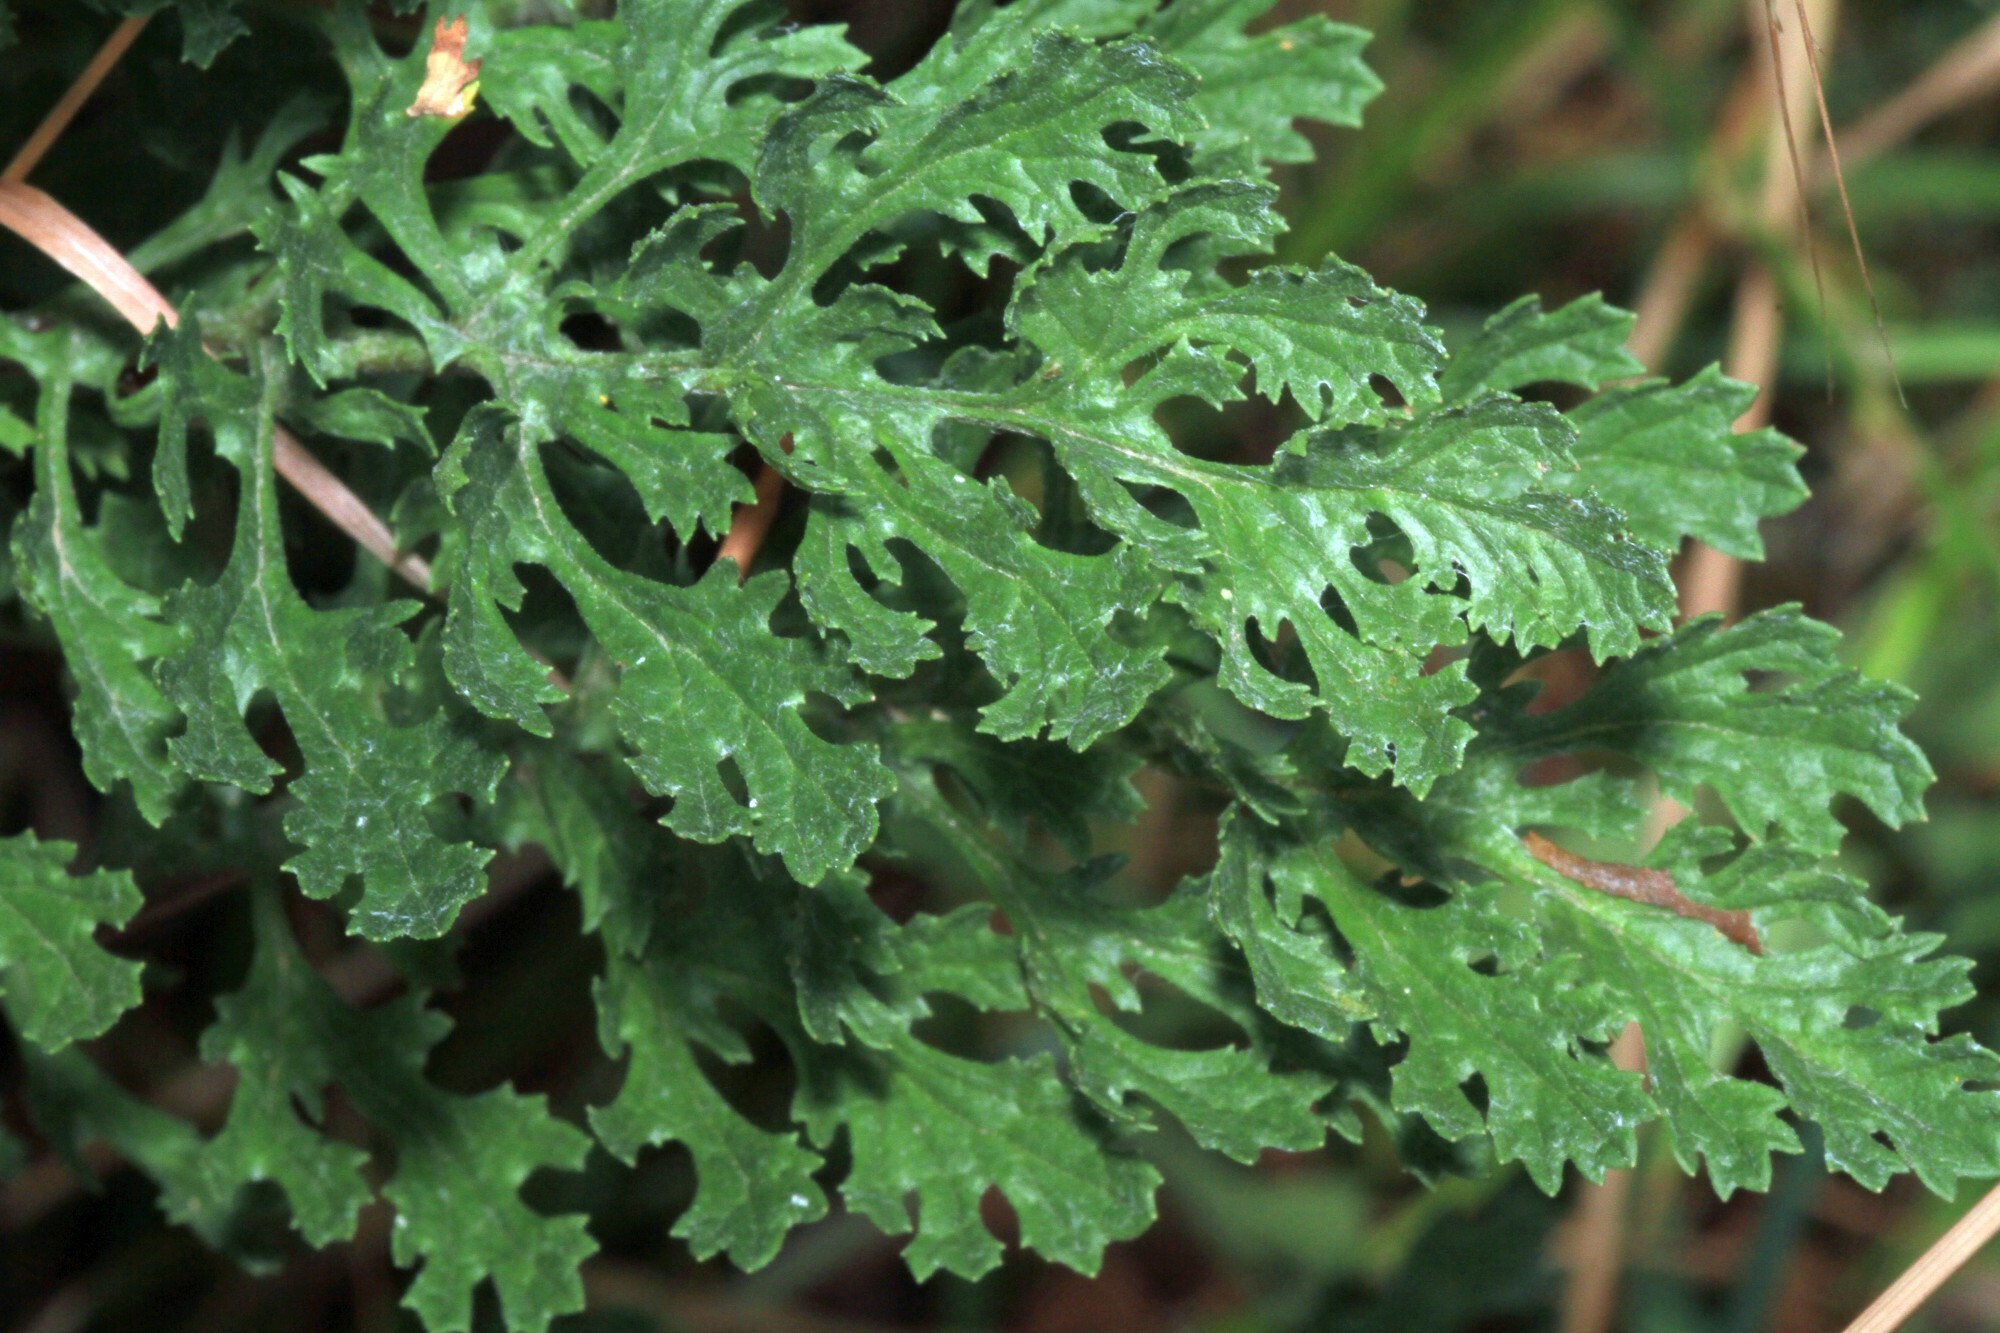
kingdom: Plantae
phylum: Tracheophyta
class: Magnoliopsida
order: Asterales
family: Asteraceae
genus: Jacobaea
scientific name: Jacobaea vulgaris
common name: Stinking willie
